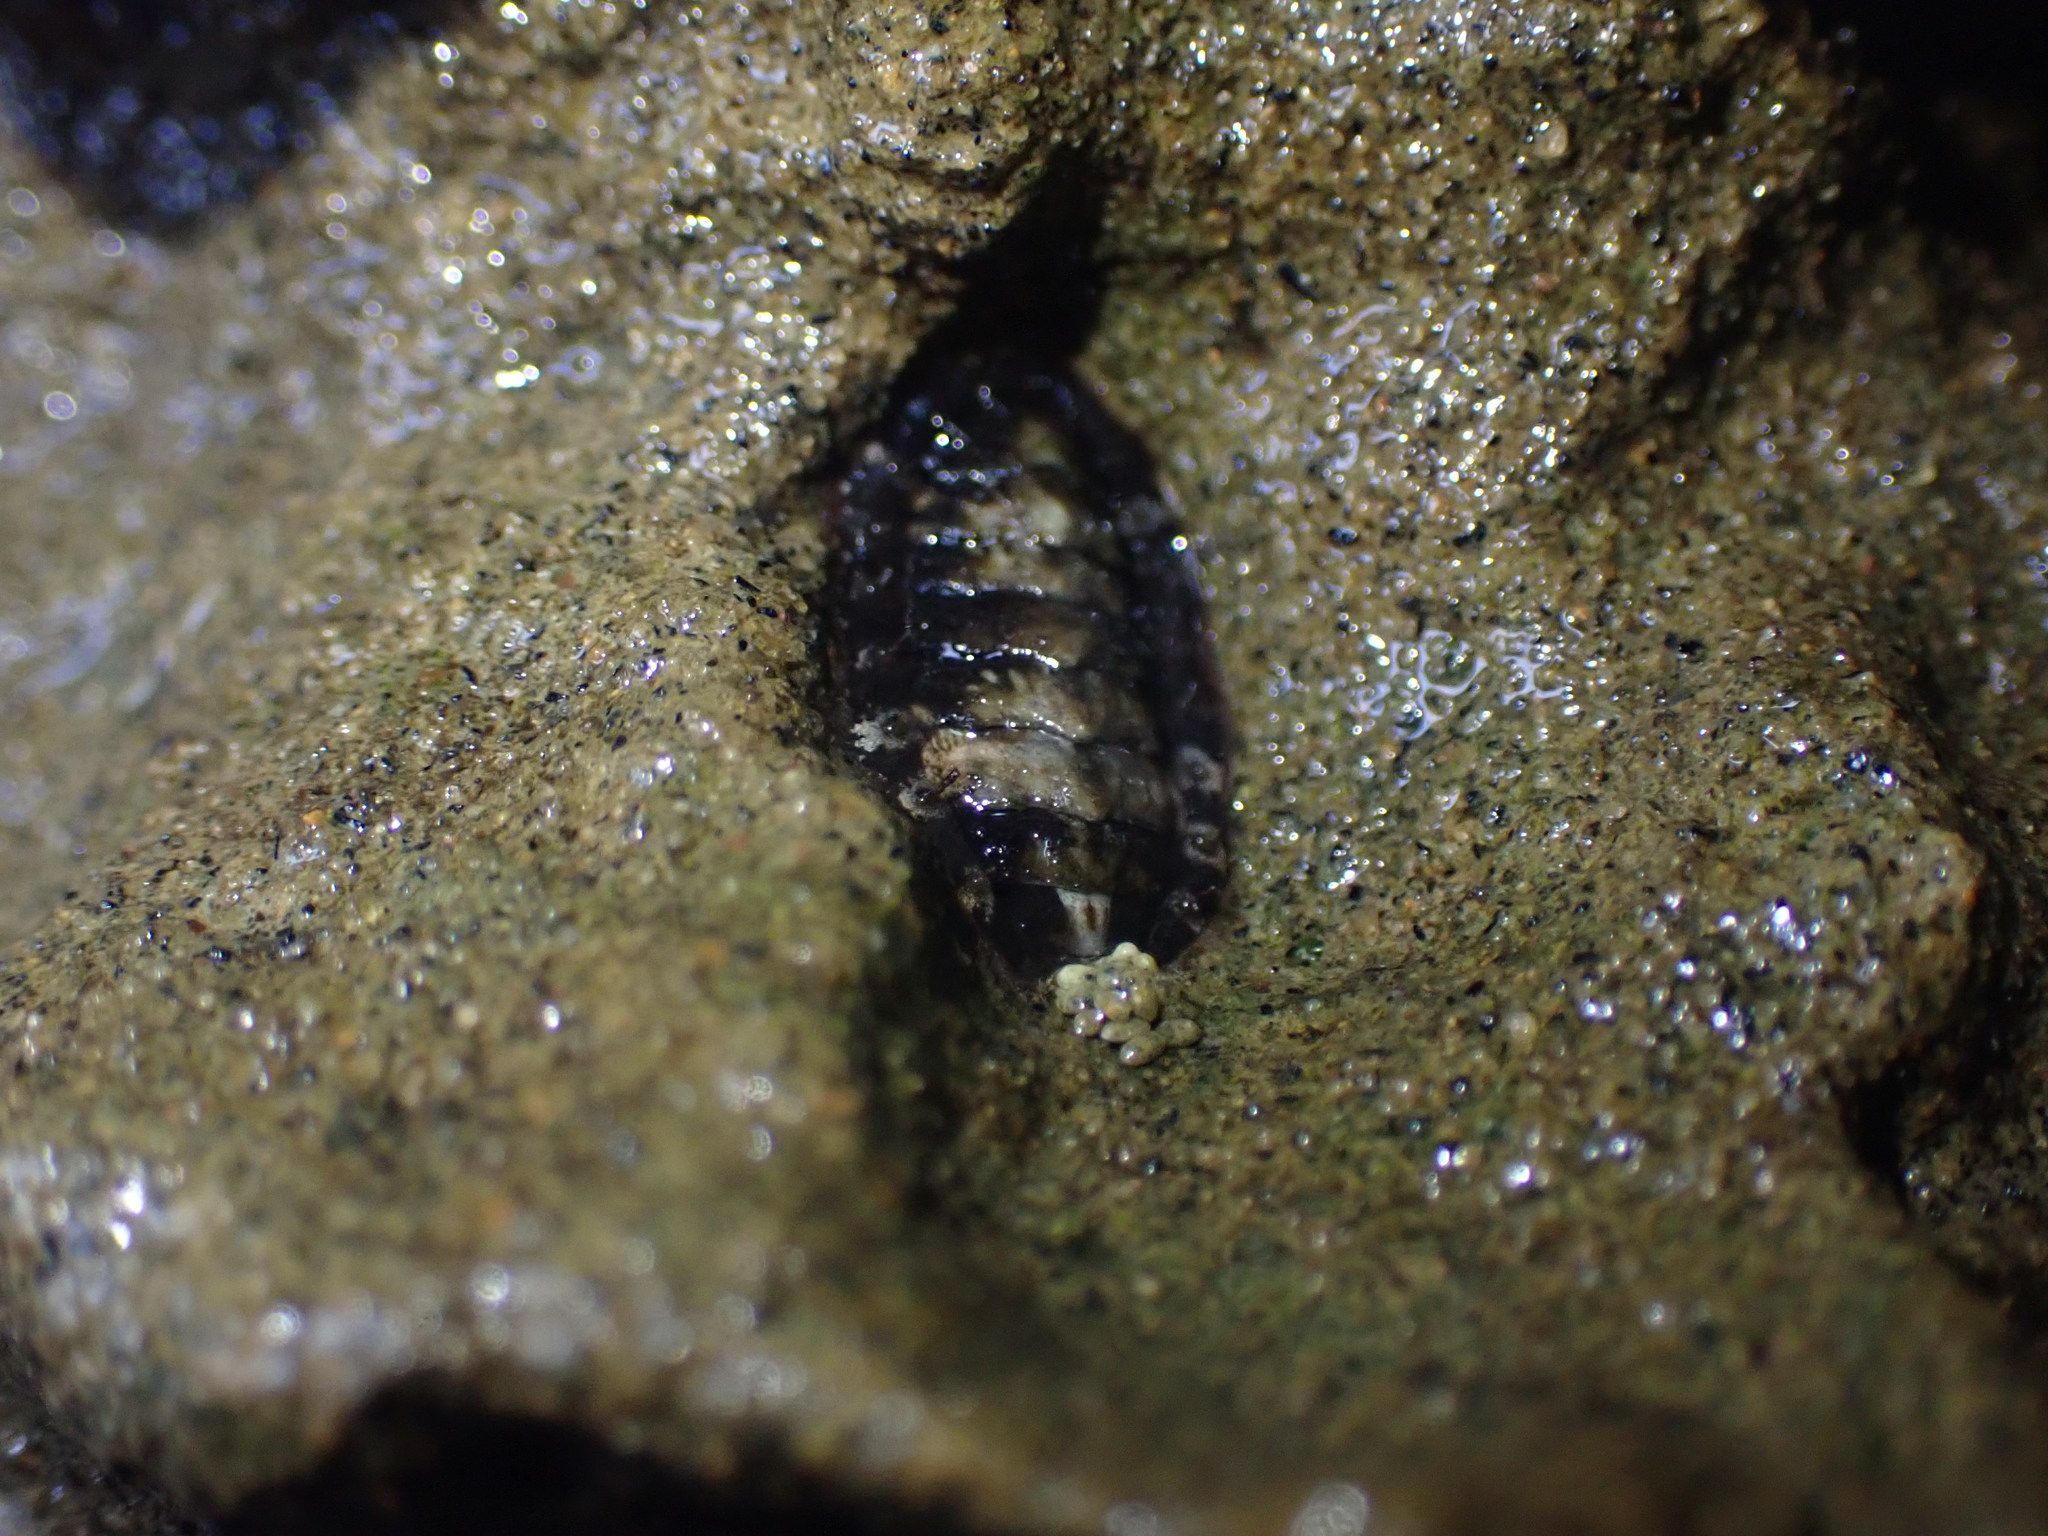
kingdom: Animalia
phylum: Mollusca
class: Polyplacophora
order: Chitonida
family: Mopaliidae
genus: Plaxiphora
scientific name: Plaxiphora caelata
